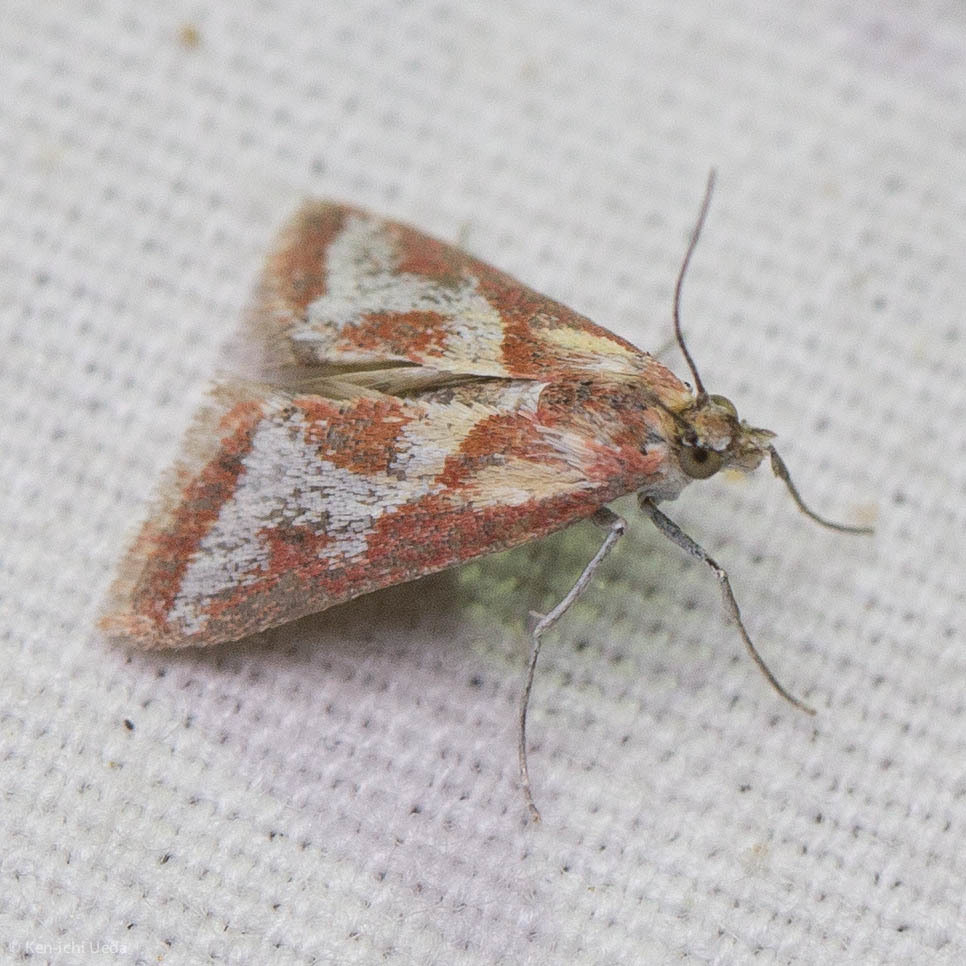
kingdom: Animalia
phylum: Arthropoda
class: Insecta
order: Lepidoptera
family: Crambidae
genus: Noctueliopsis
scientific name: Noctueliopsis aridalis
